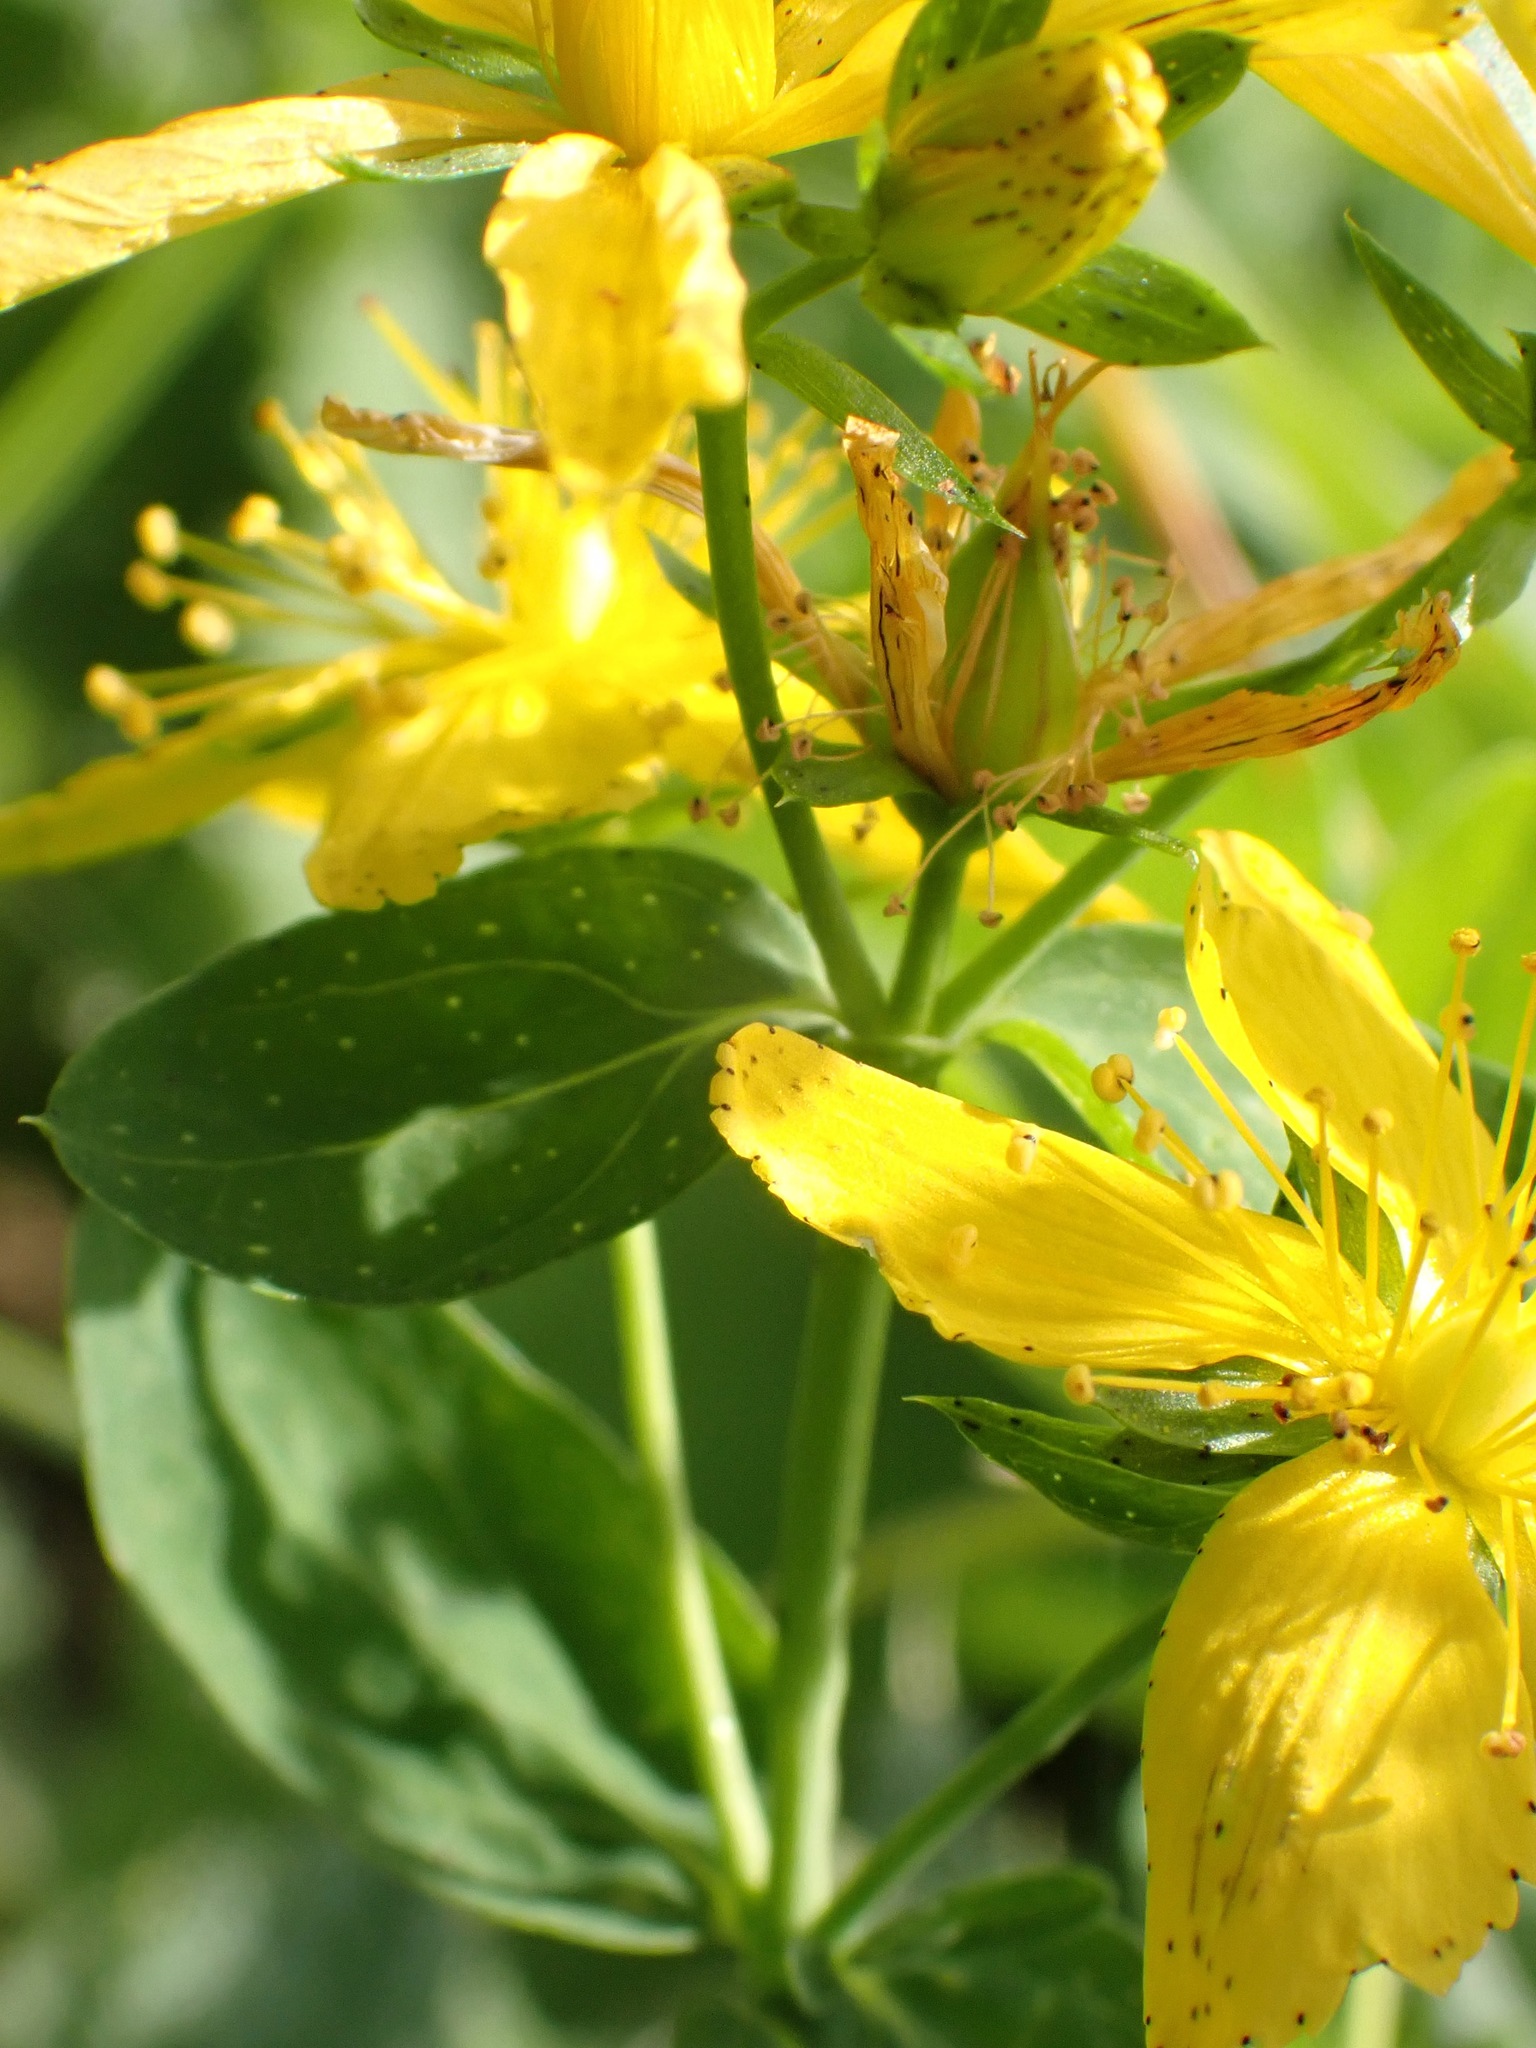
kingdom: Plantae
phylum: Tracheophyta
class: Magnoliopsida
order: Malpighiales
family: Hypericaceae
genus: Hypericum
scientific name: Hypericum perforatum
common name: Common st. johnswort
